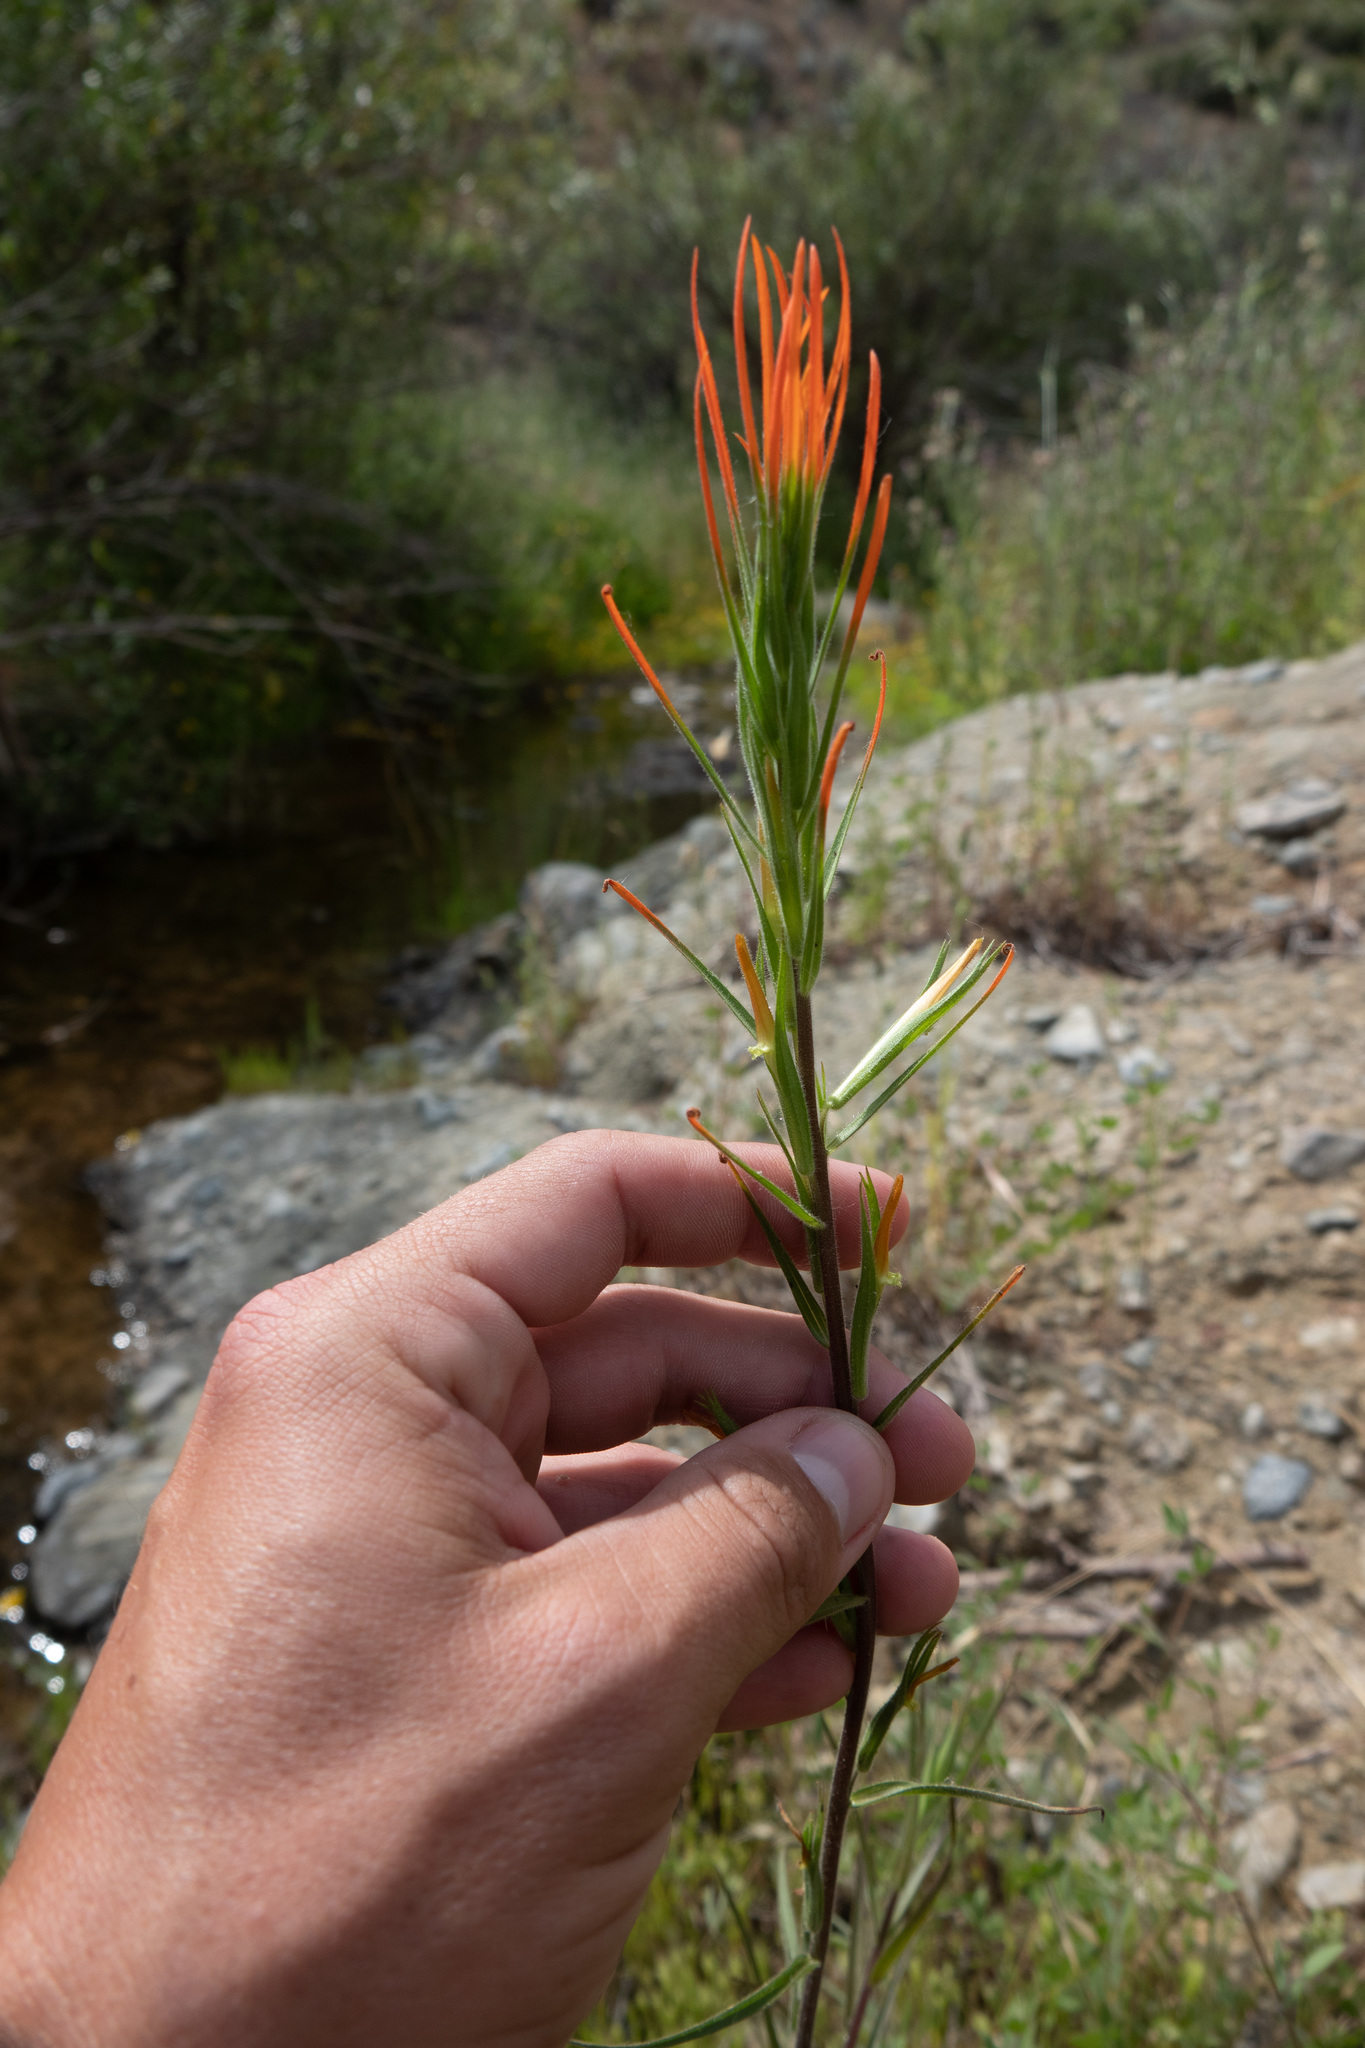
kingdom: Plantae
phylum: Tracheophyta
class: Magnoliopsida
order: Lamiales
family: Orobanchaceae
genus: Castilleja
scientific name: Castilleja minor
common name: Seep paintbrush
